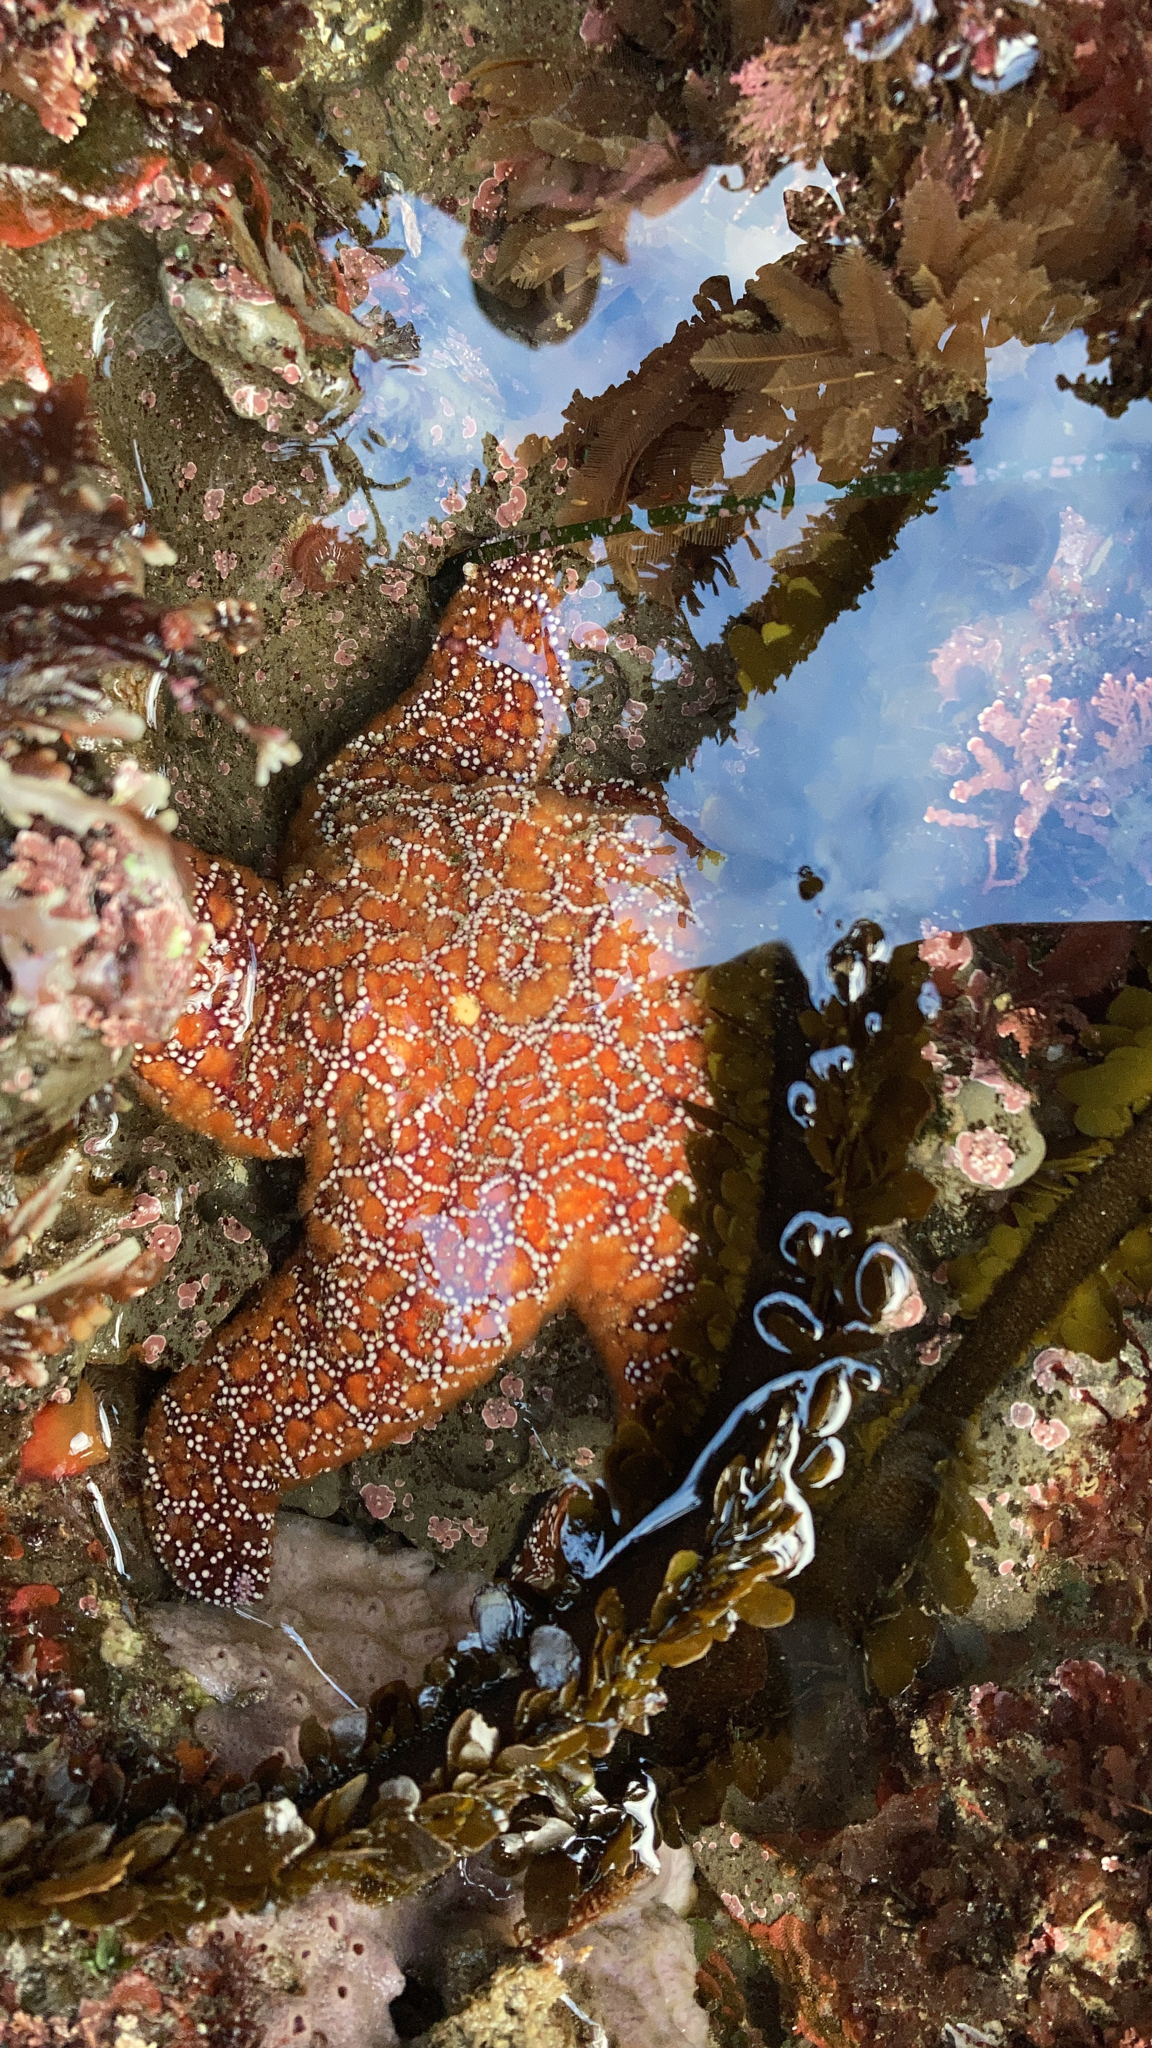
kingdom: Animalia
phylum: Echinodermata
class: Asteroidea
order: Forcipulatida
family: Asteriidae
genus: Pisaster
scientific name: Pisaster ochraceus
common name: Ochre stars
